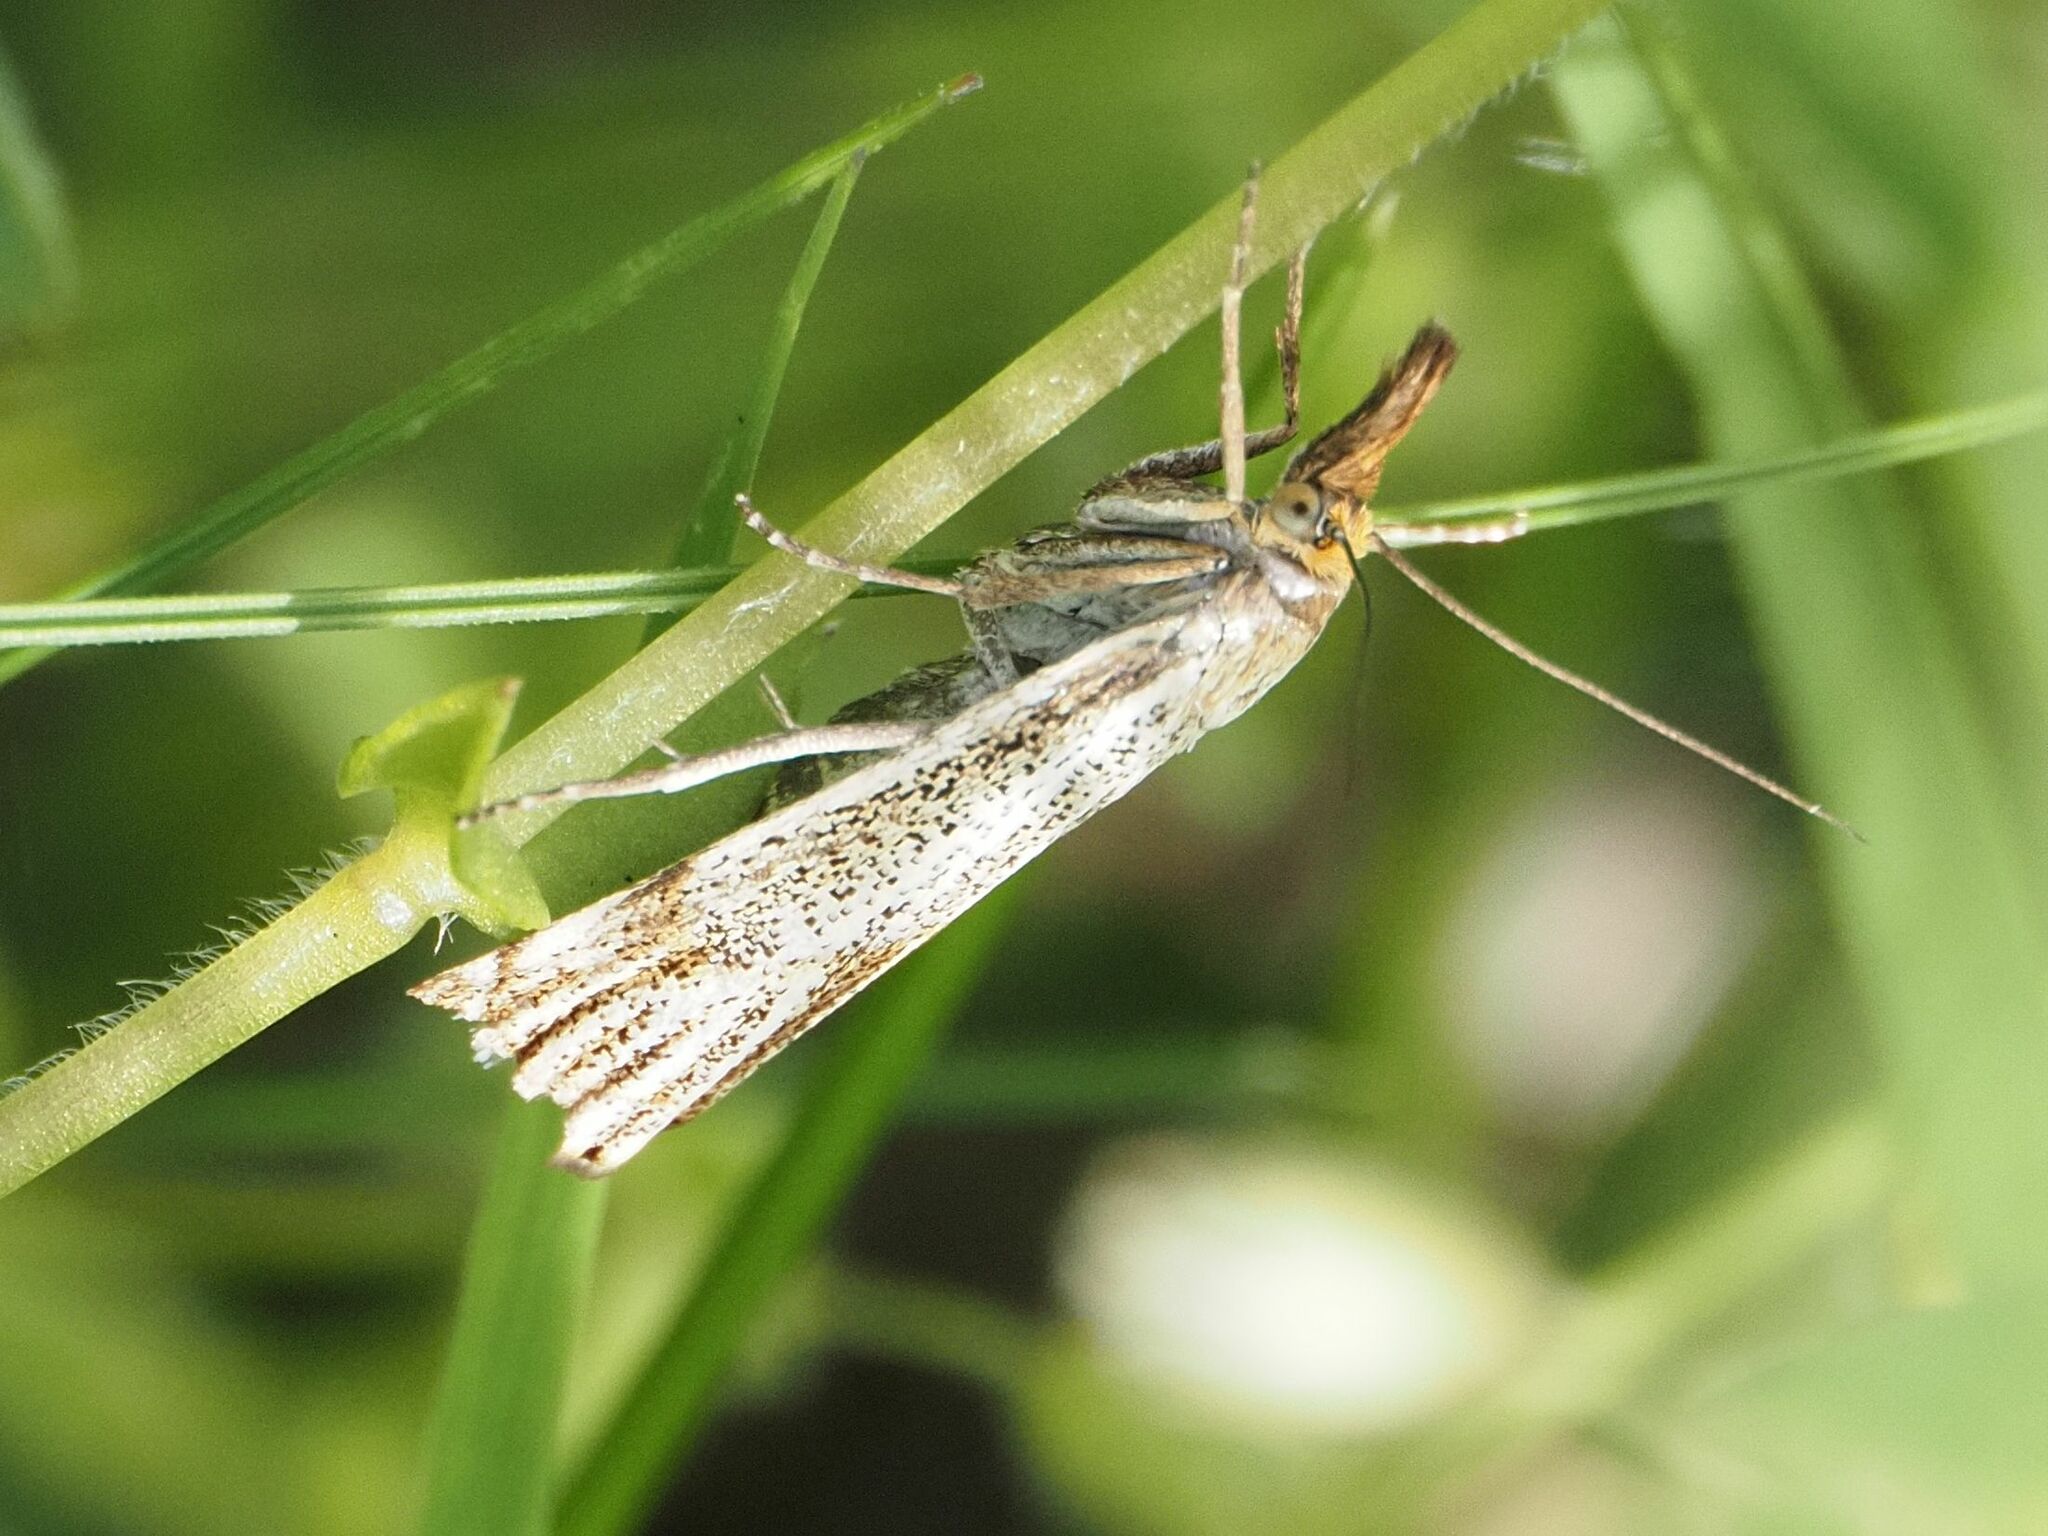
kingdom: Animalia
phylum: Arthropoda
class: Insecta
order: Lepidoptera
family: Crambidae
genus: Thisanotia
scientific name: Thisanotia chrysonuchella
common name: Powdered grass-veneer
